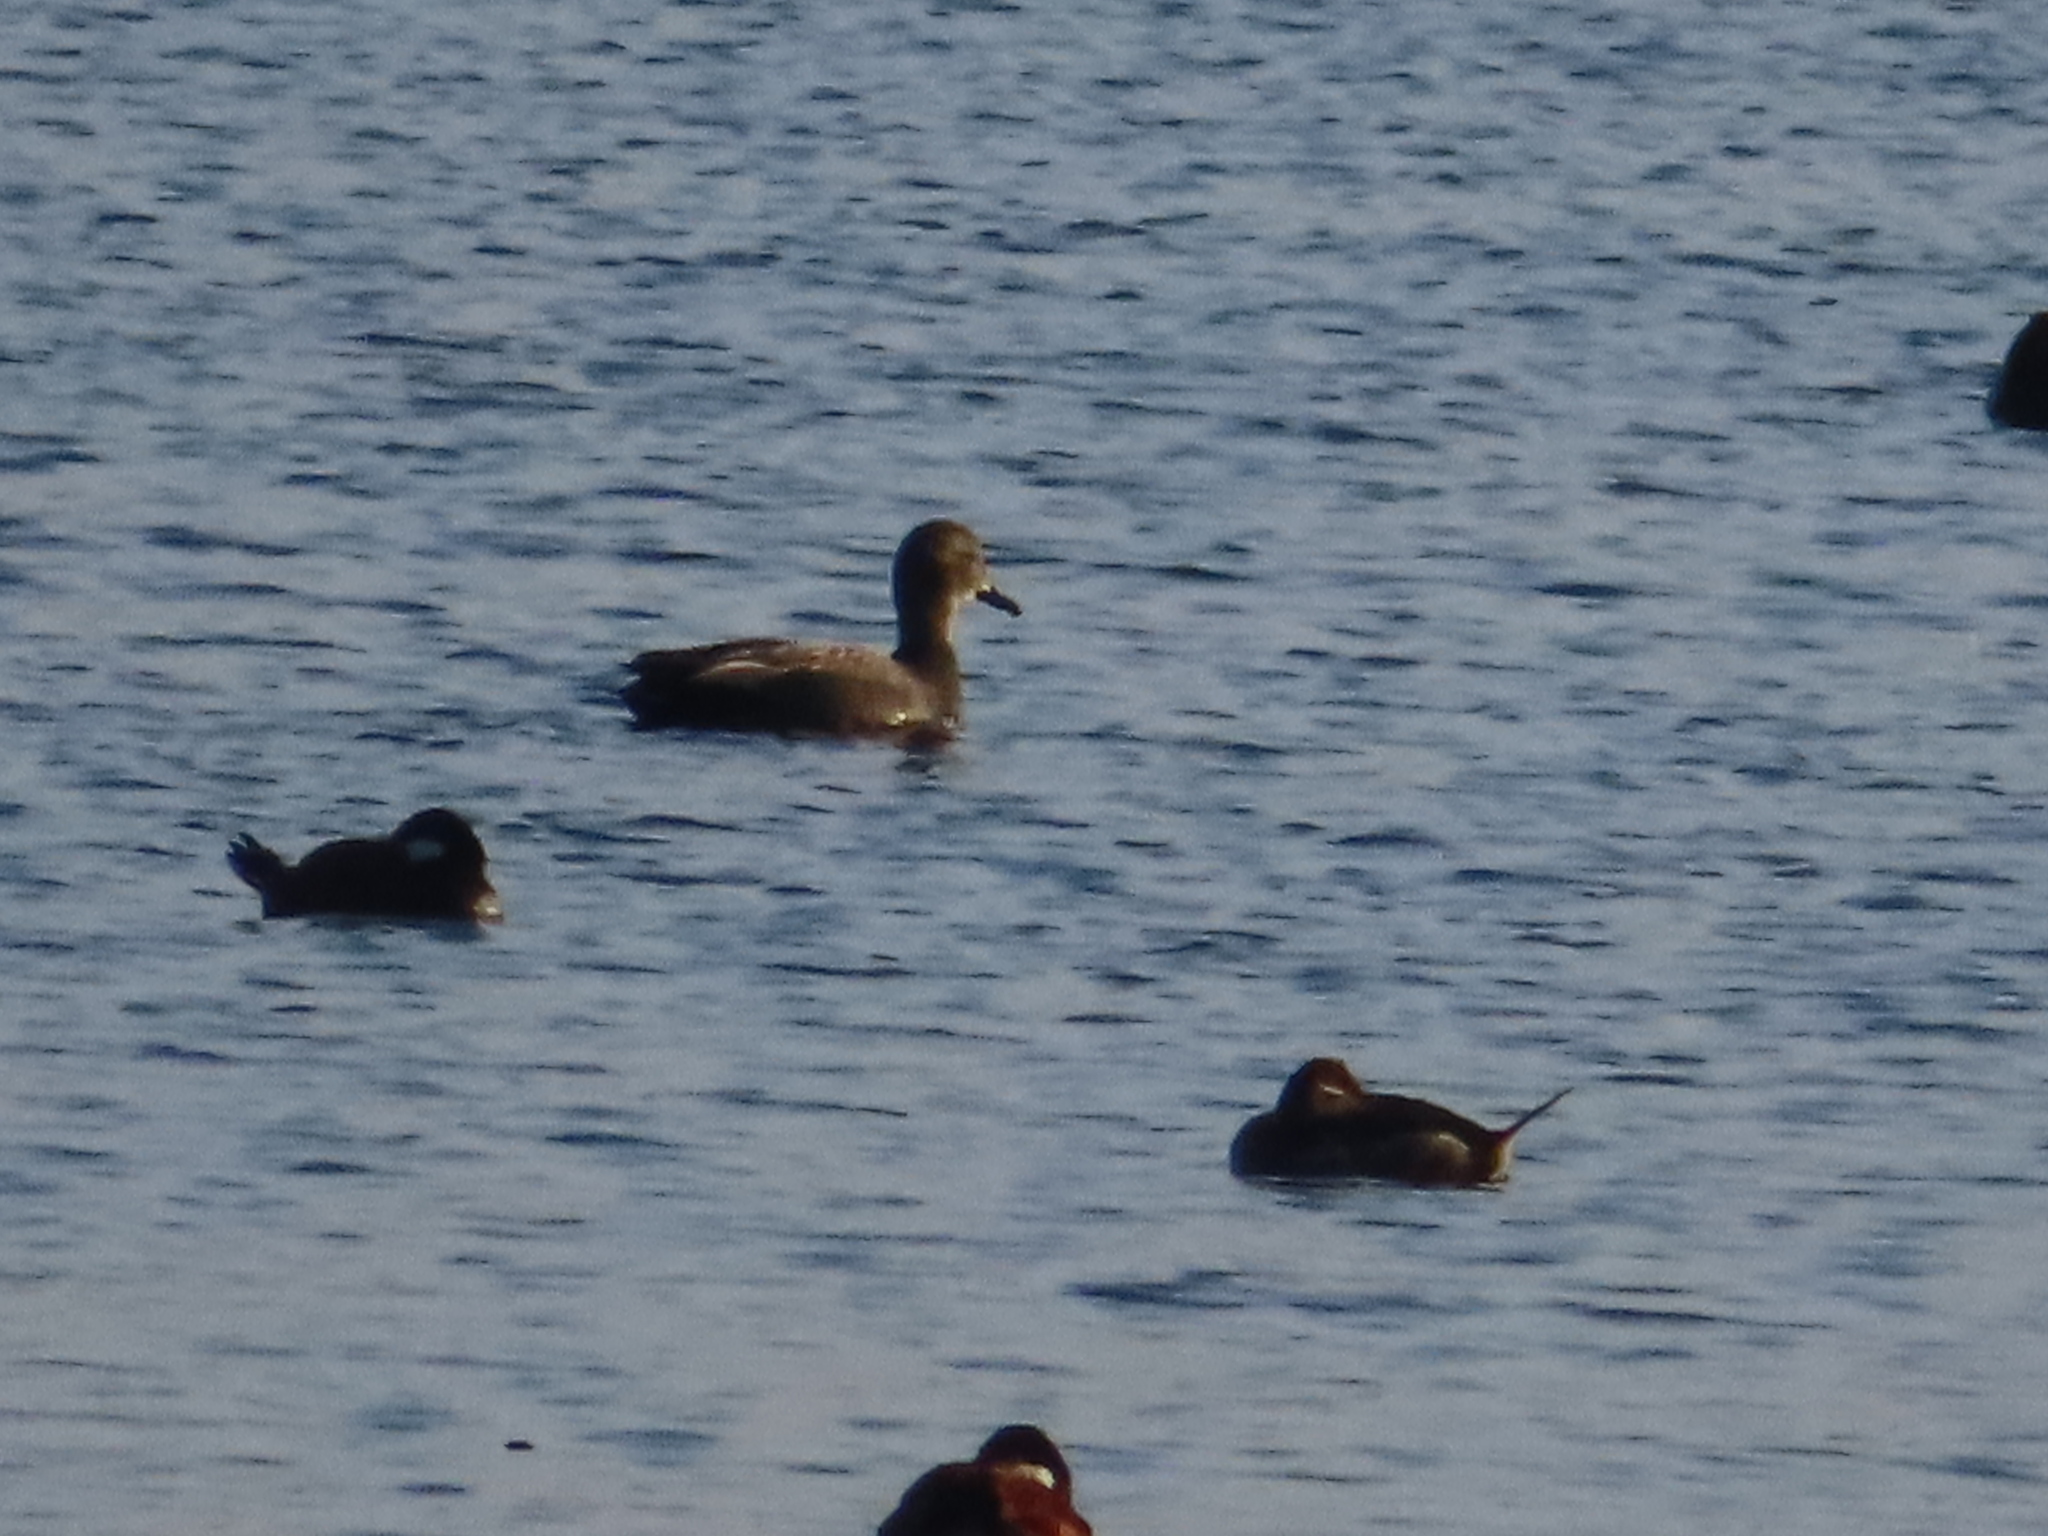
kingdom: Animalia
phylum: Chordata
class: Aves
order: Anseriformes
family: Anatidae
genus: Mareca
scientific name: Mareca strepera
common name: Gadwall
